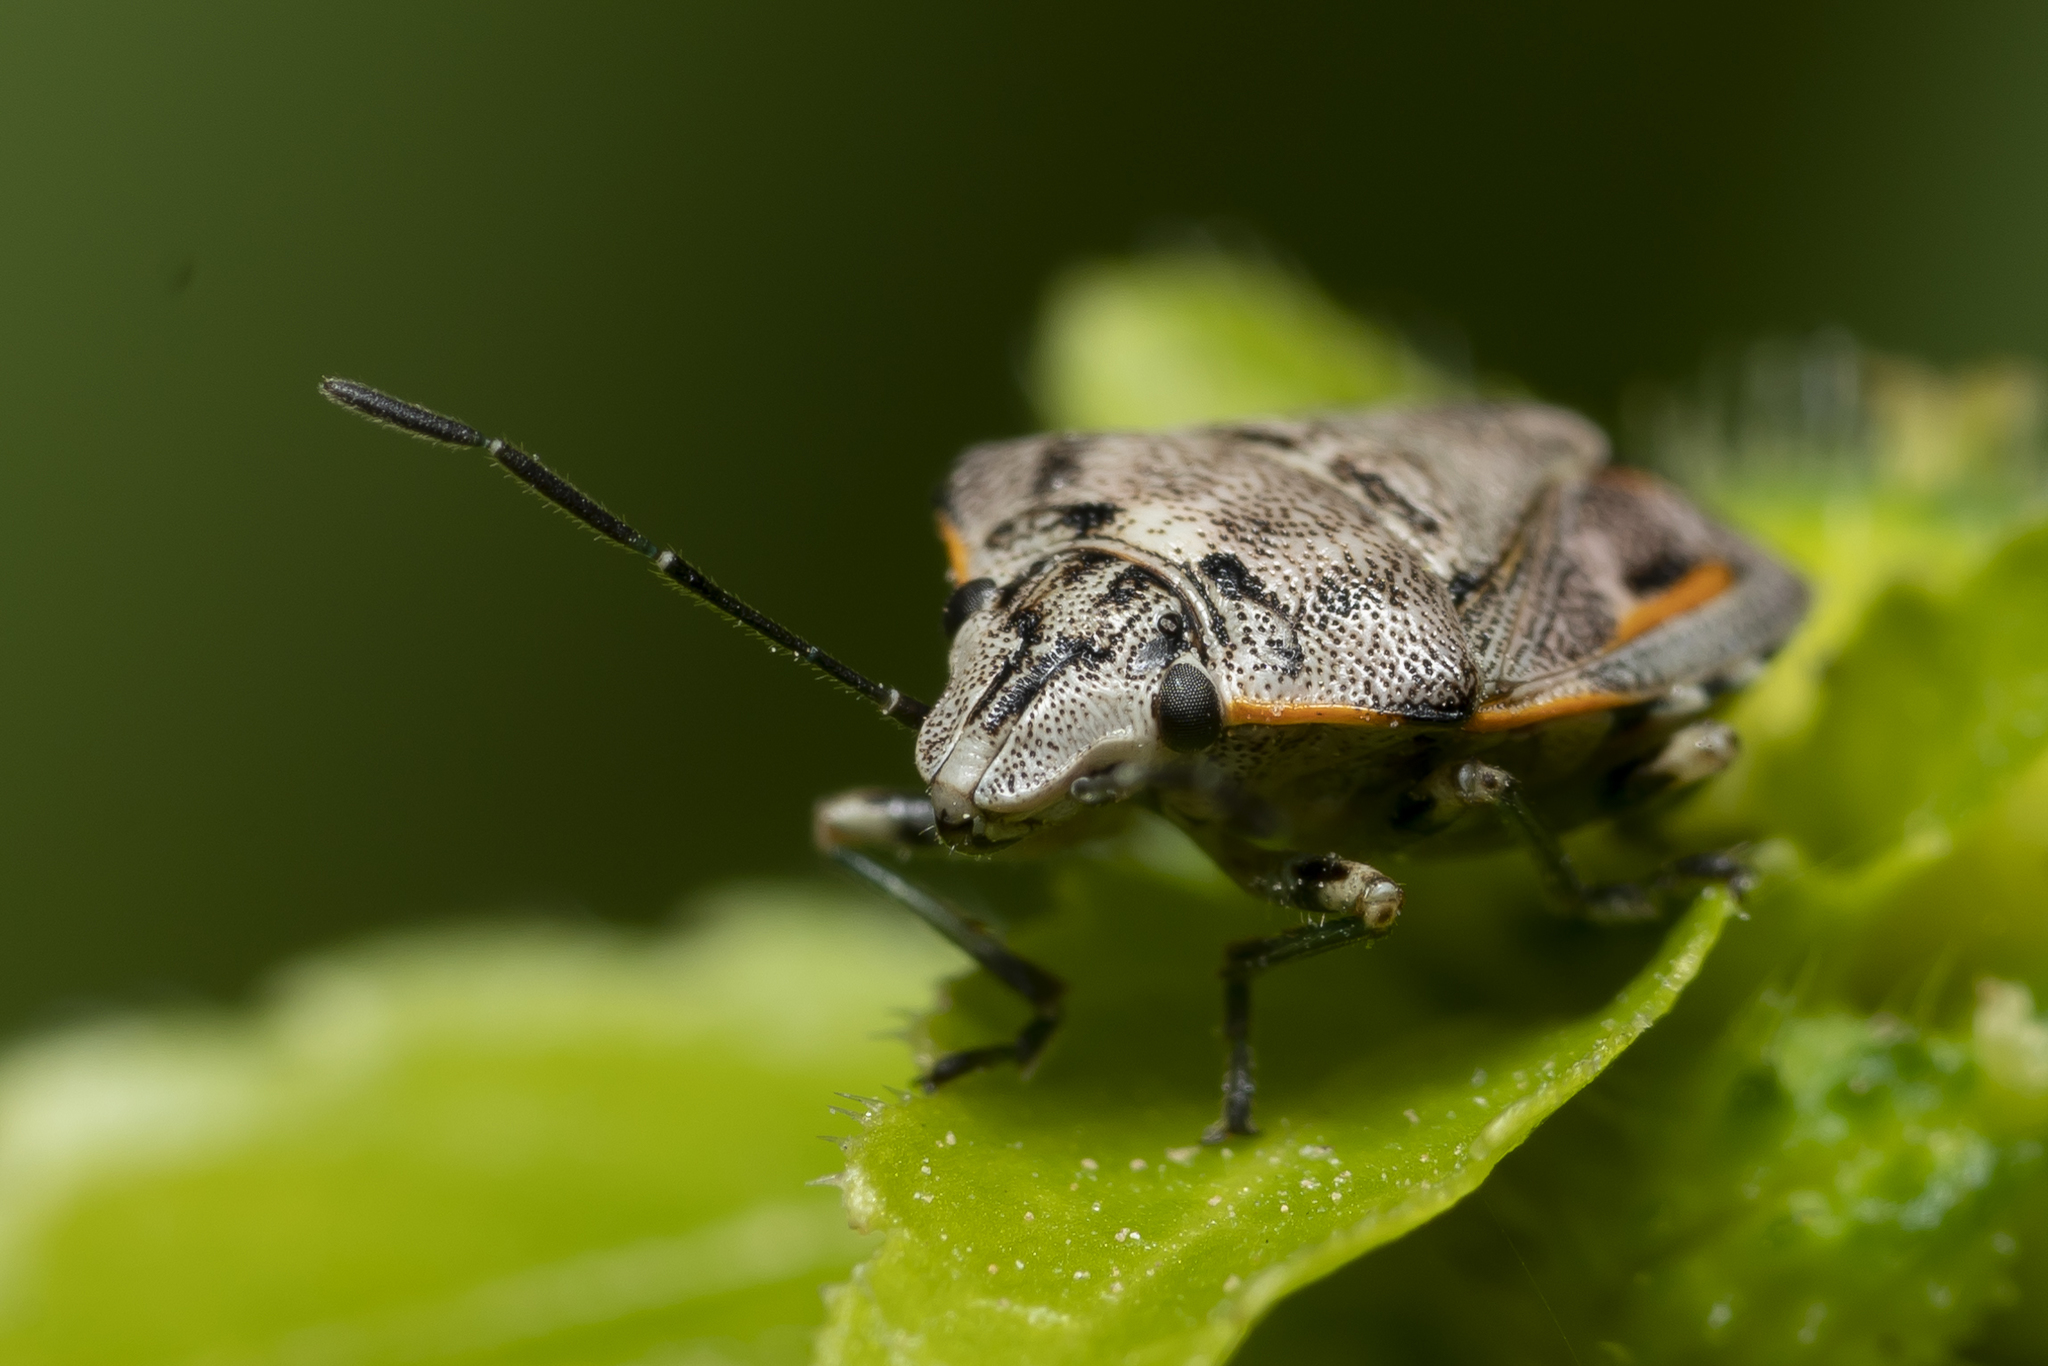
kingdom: Animalia
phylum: Arthropoda
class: Insecta
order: Hemiptera
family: Pentatomidae
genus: Holcogaster
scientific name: Holcogaster fibulata
